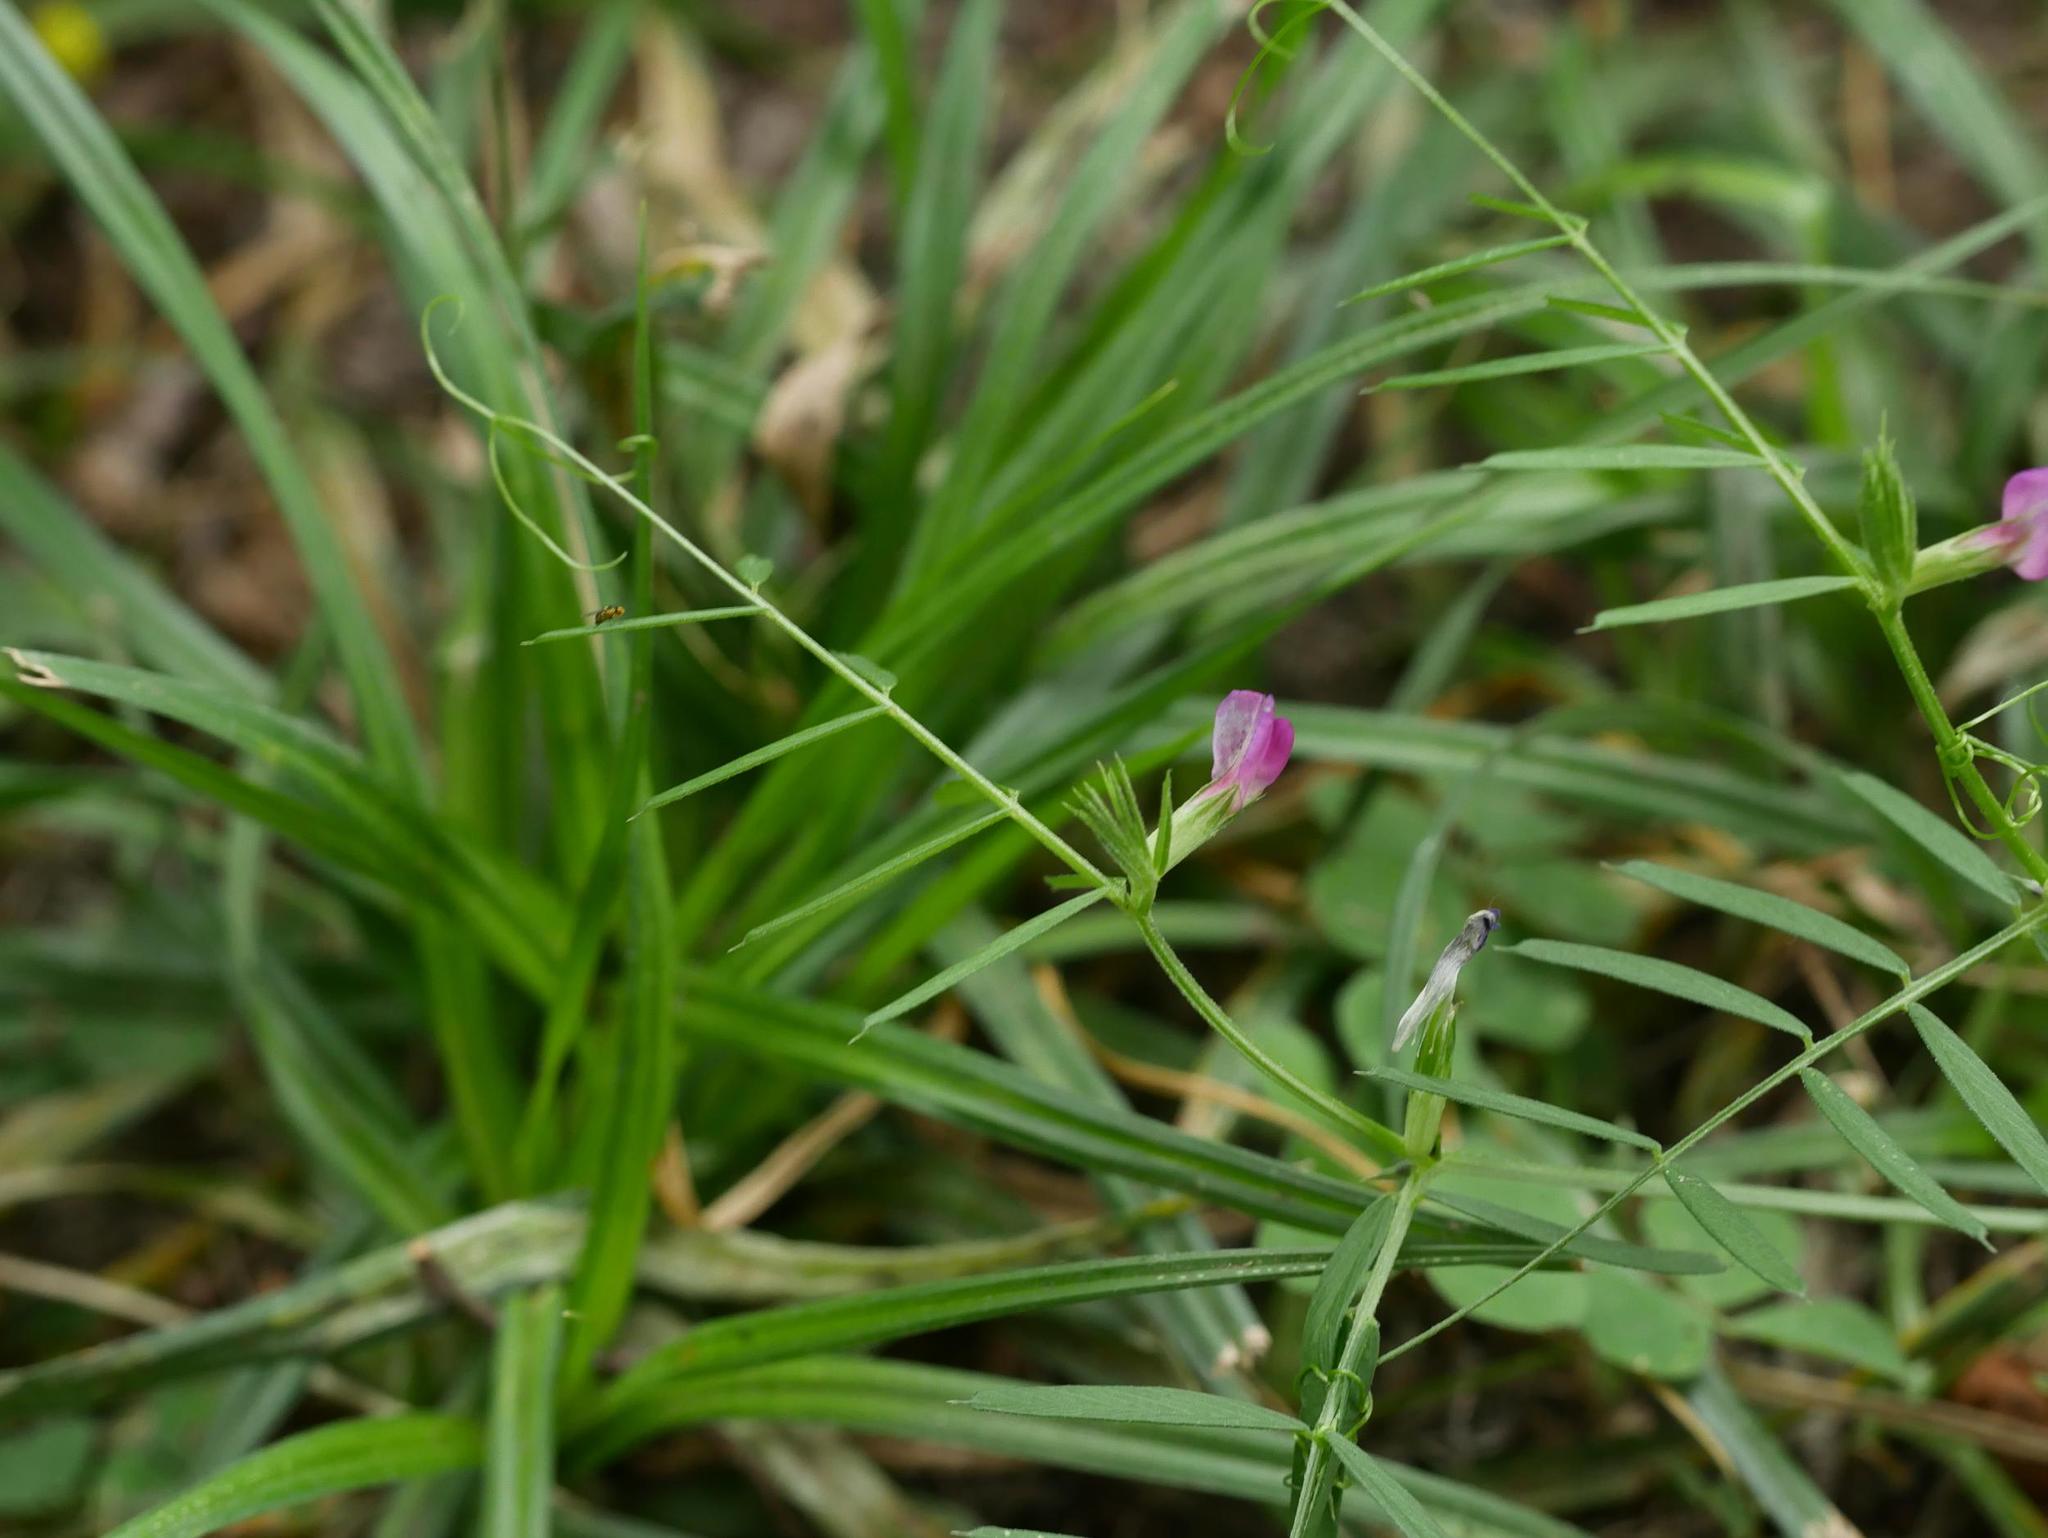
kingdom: Plantae
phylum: Tracheophyta
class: Magnoliopsida
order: Fabales
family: Fabaceae
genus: Vicia
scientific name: Vicia sativa
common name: Garden vetch
